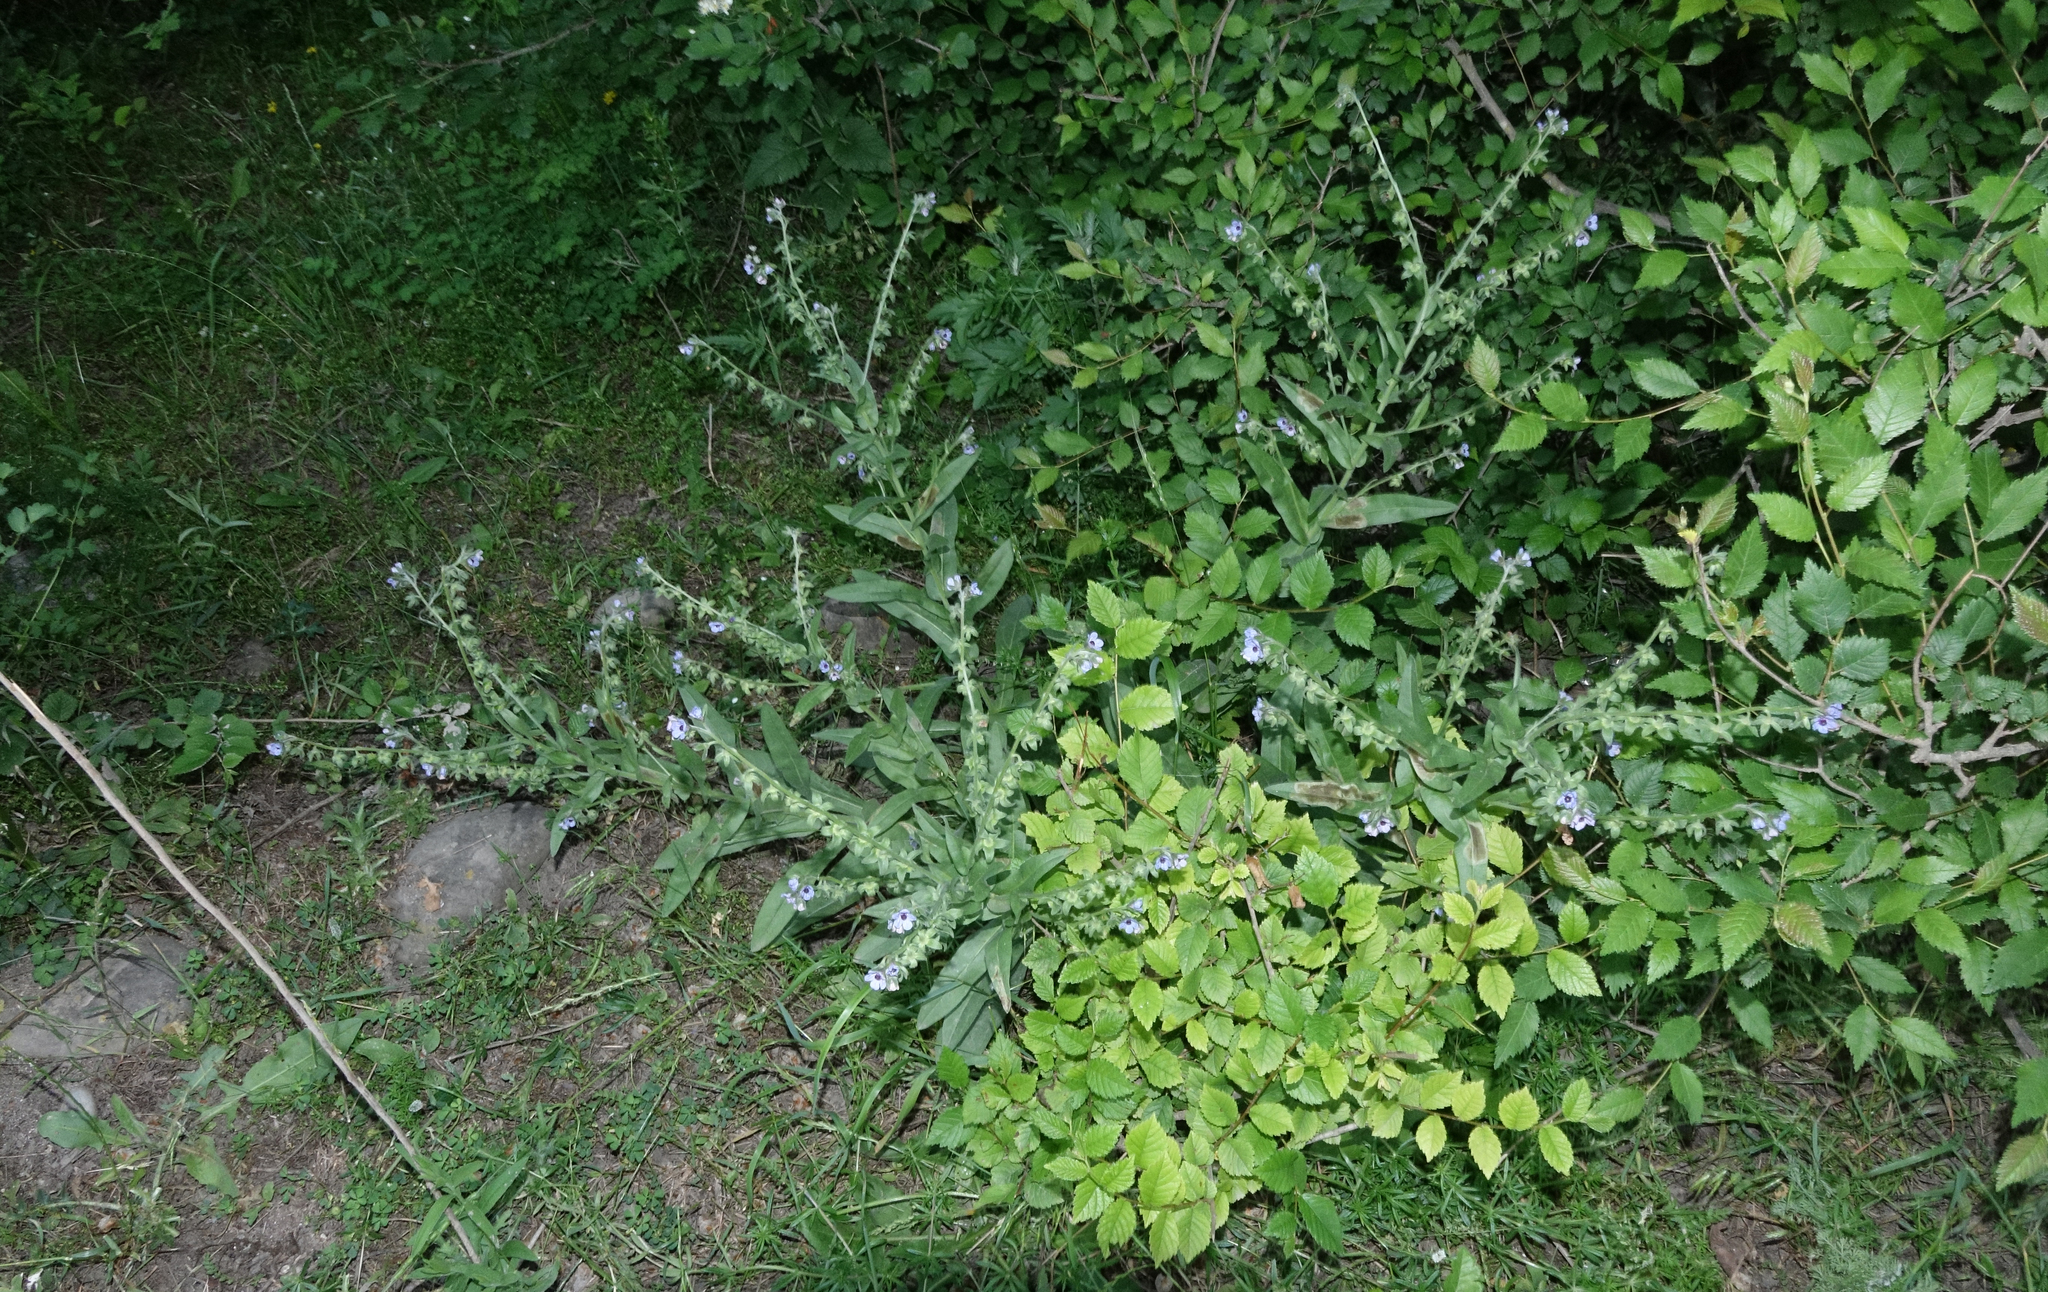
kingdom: Plantae
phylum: Tracheophyta
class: Magnoliopsida
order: Boraginales
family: Boraginaceae
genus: Cynoglossum
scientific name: Cynoglossum creticum
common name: Blue hound's tongue
